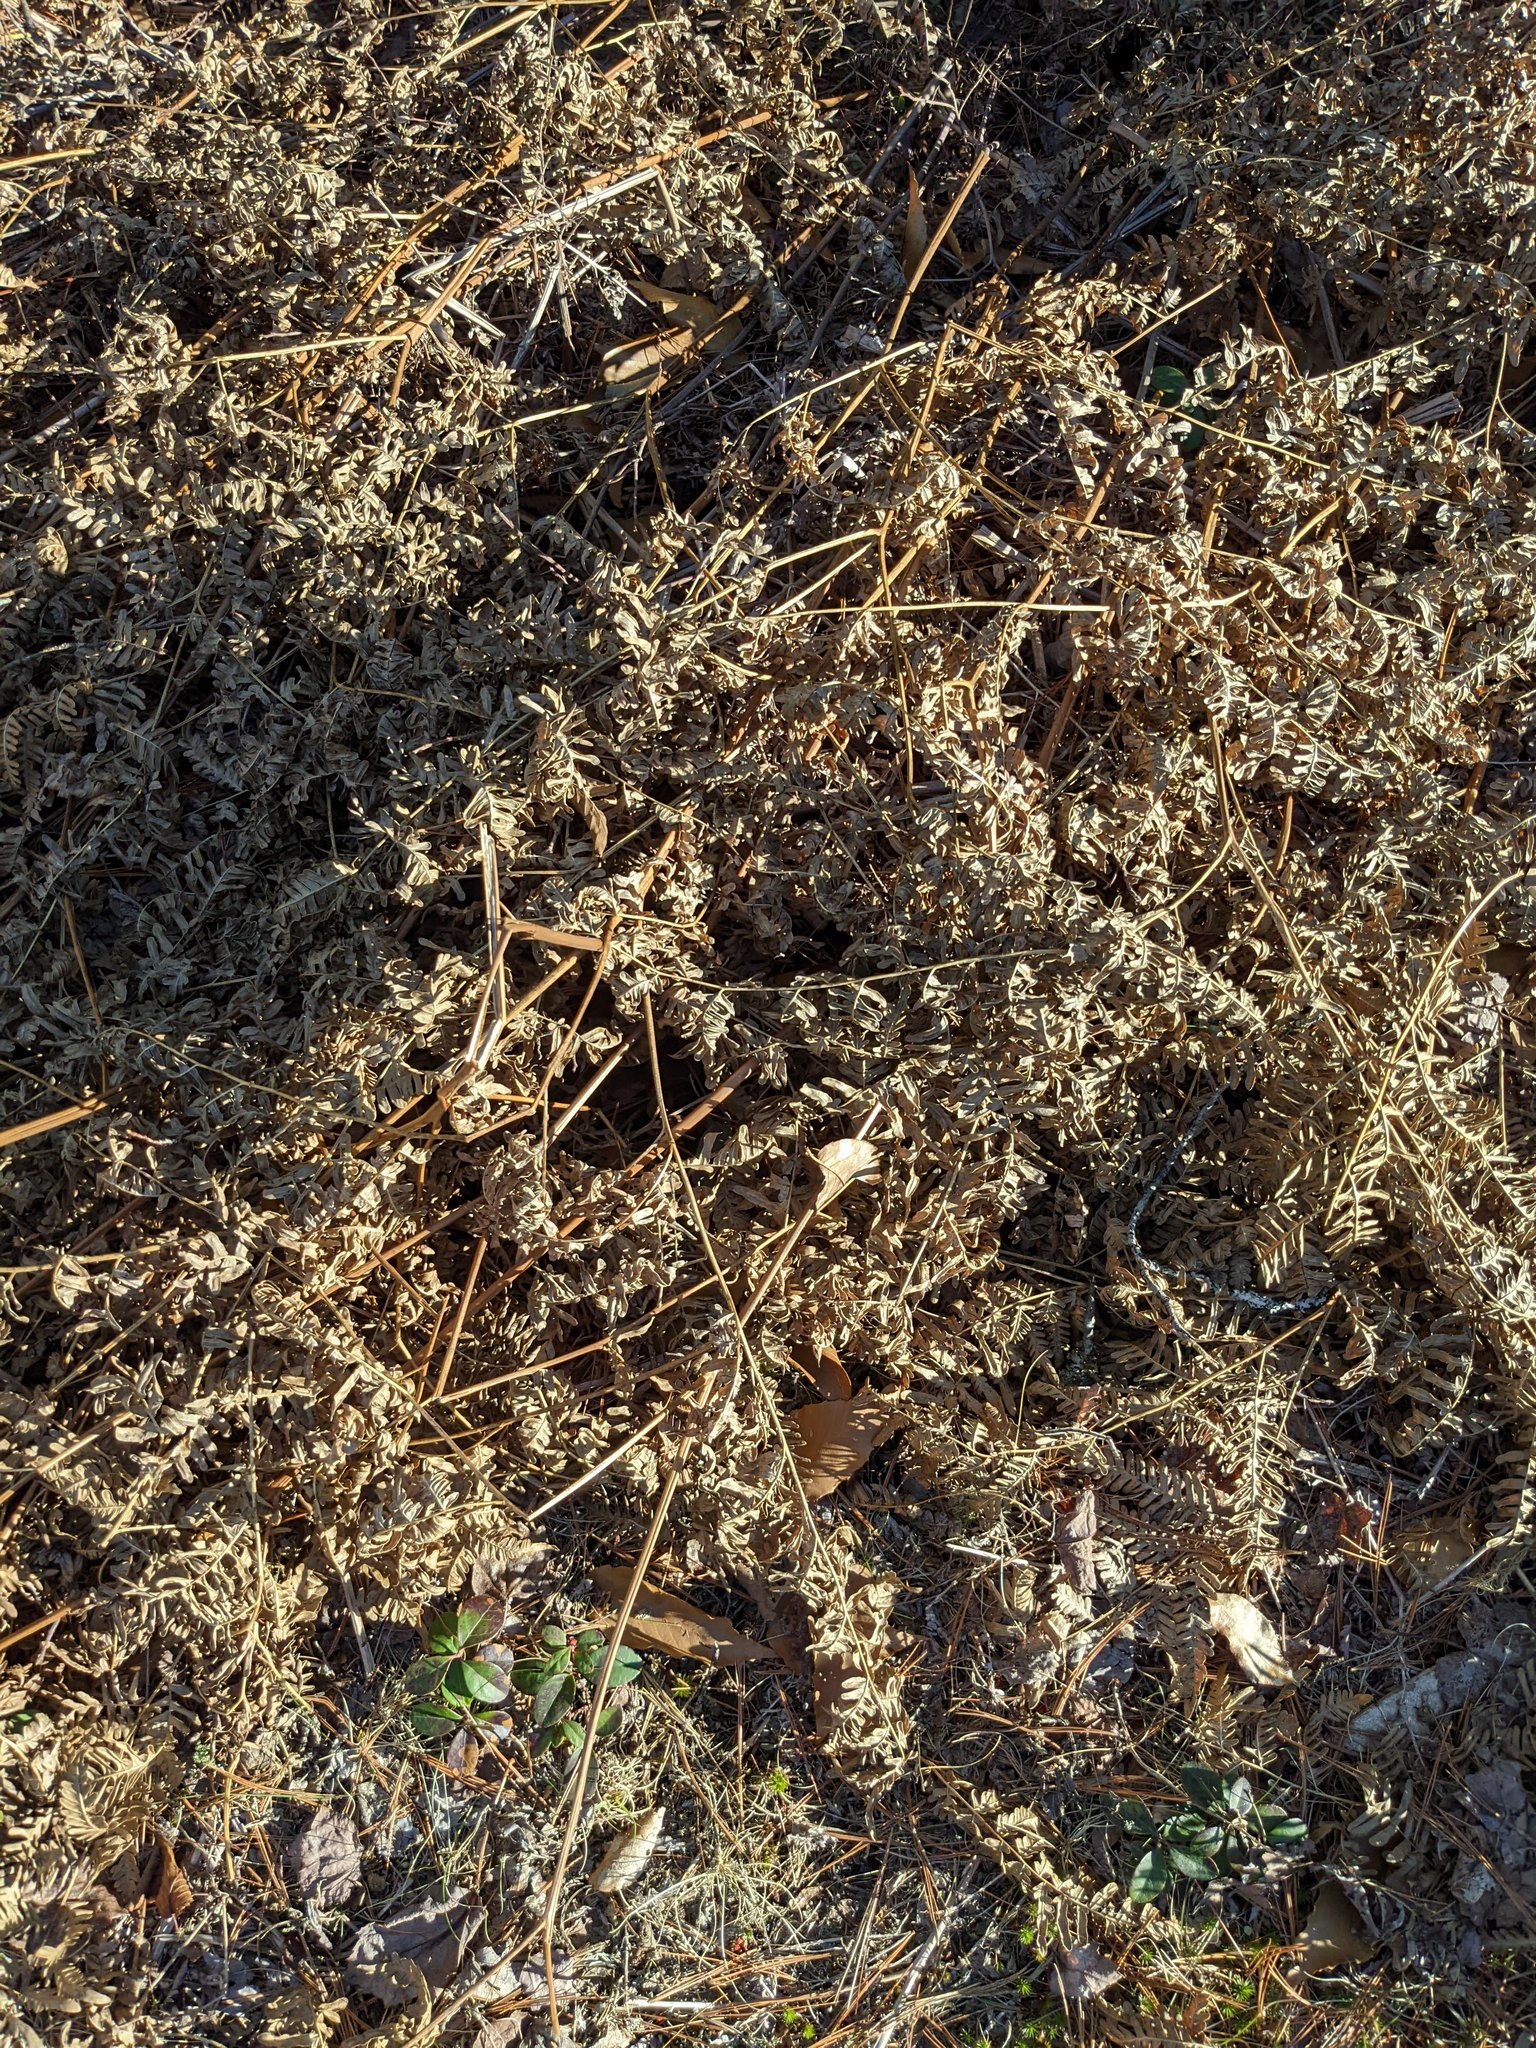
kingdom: Plantae
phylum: Tracheophyta
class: Polypodiopsida
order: Polypodiales
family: Dennstaedtiaceae
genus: Pteridium
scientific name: Pteridium aquilinum
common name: Bracken
